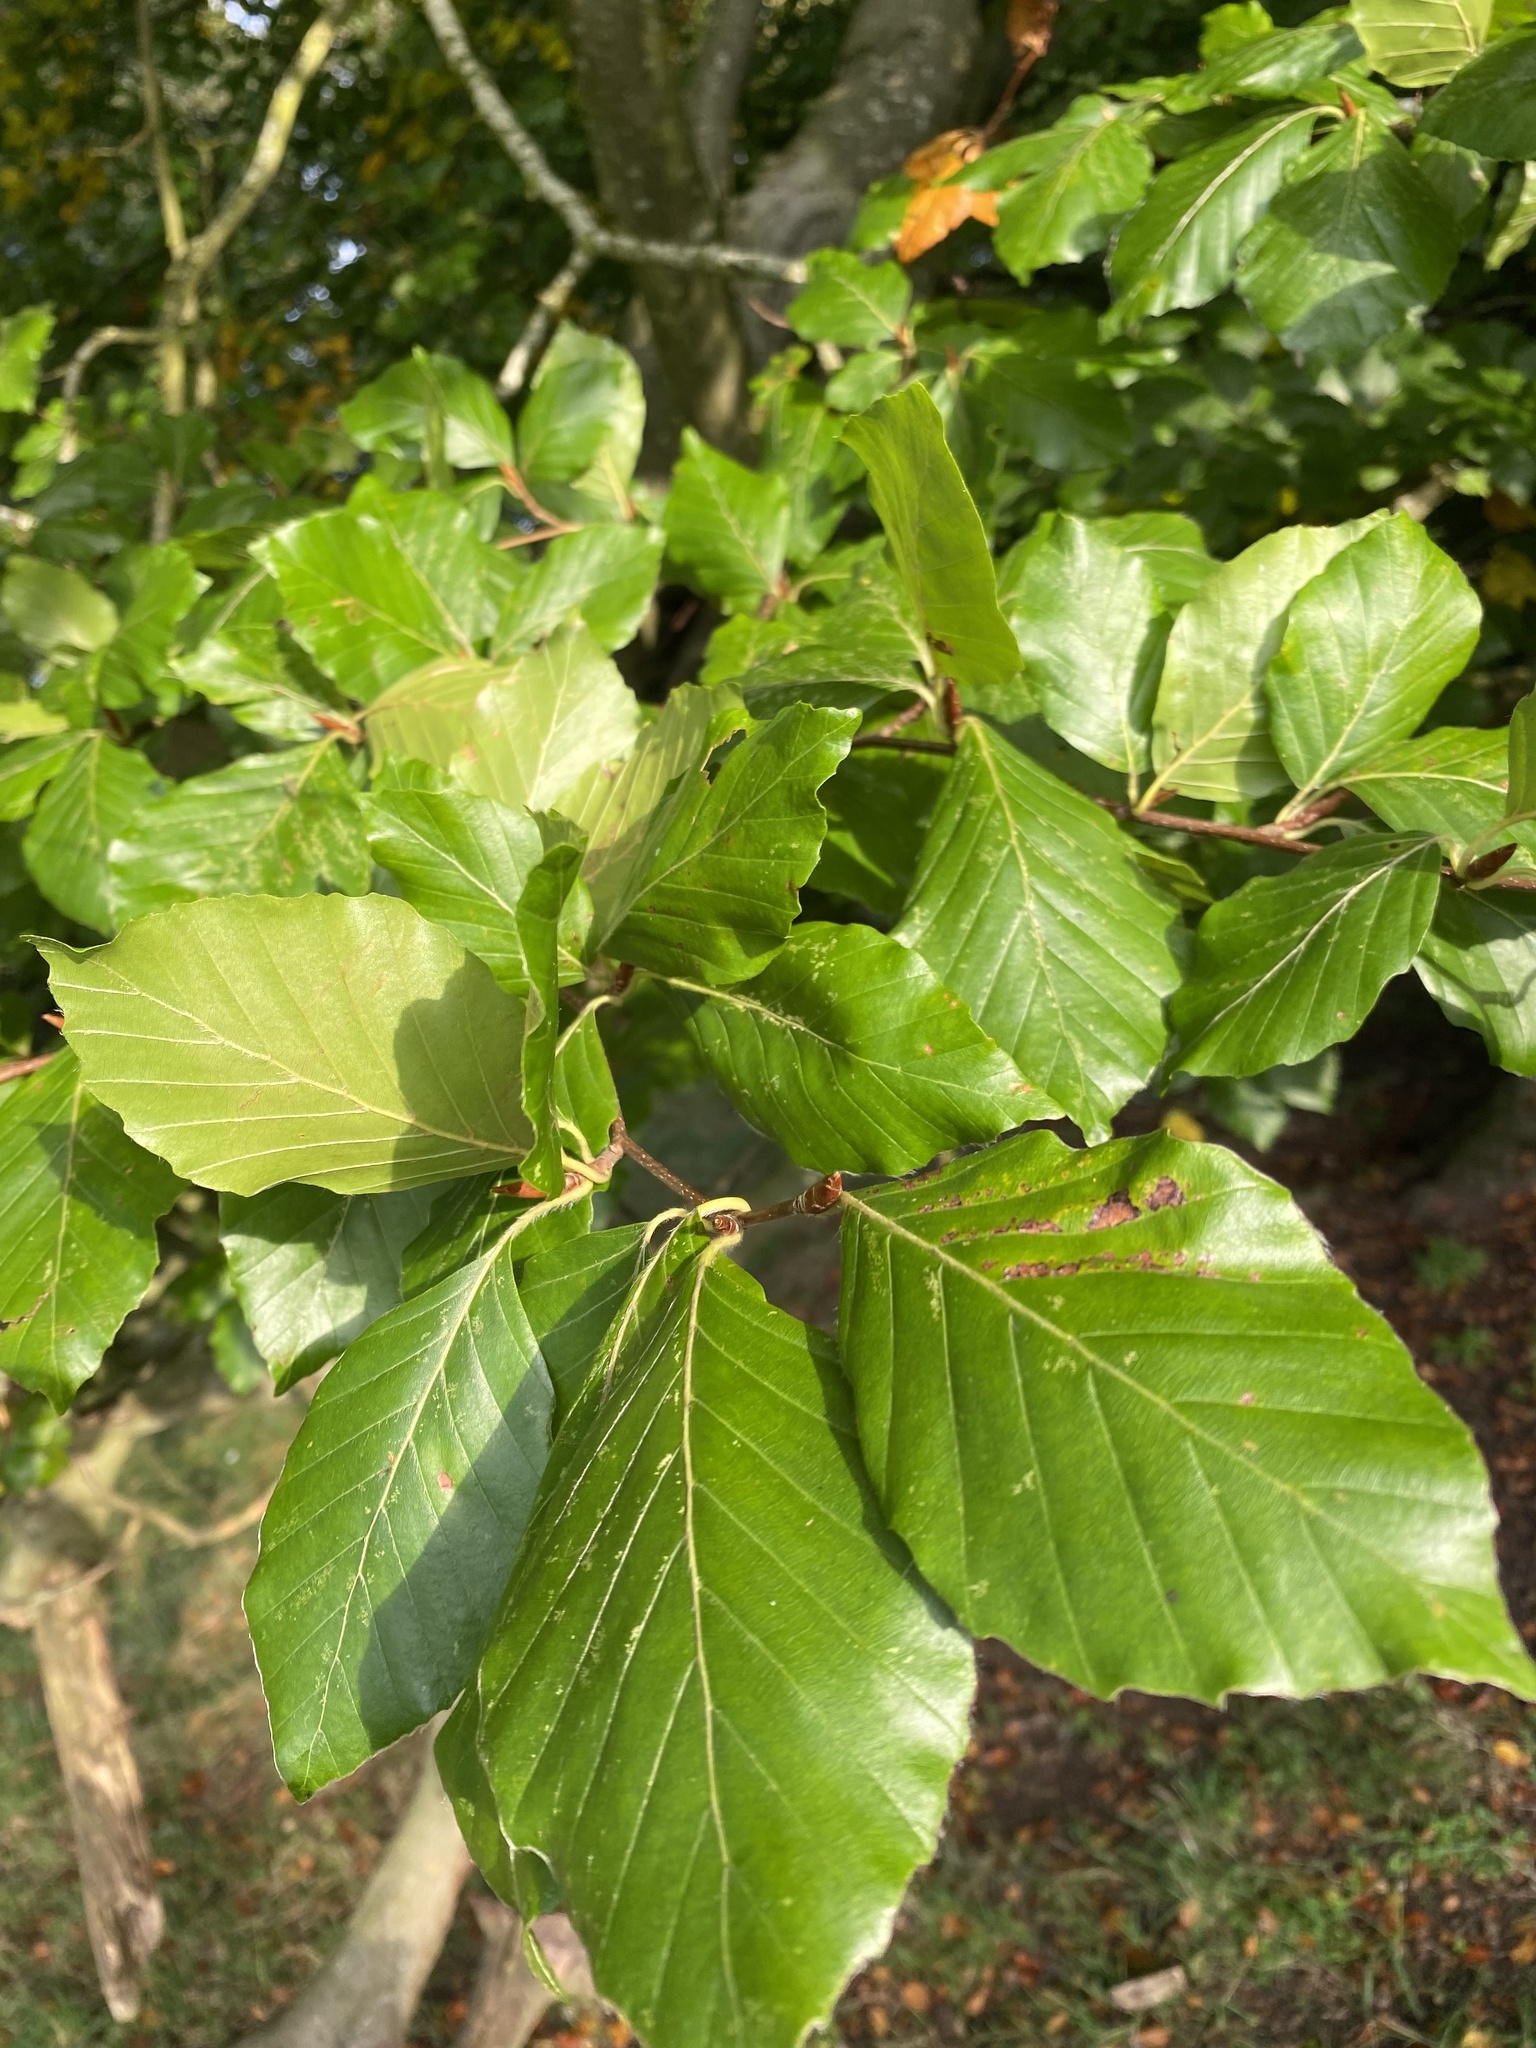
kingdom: Plantae
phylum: Tracheophyta
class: Magnoliopsida
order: Fagales
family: Fagaceae
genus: Fagus
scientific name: Fagus sylvatica
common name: Beech
